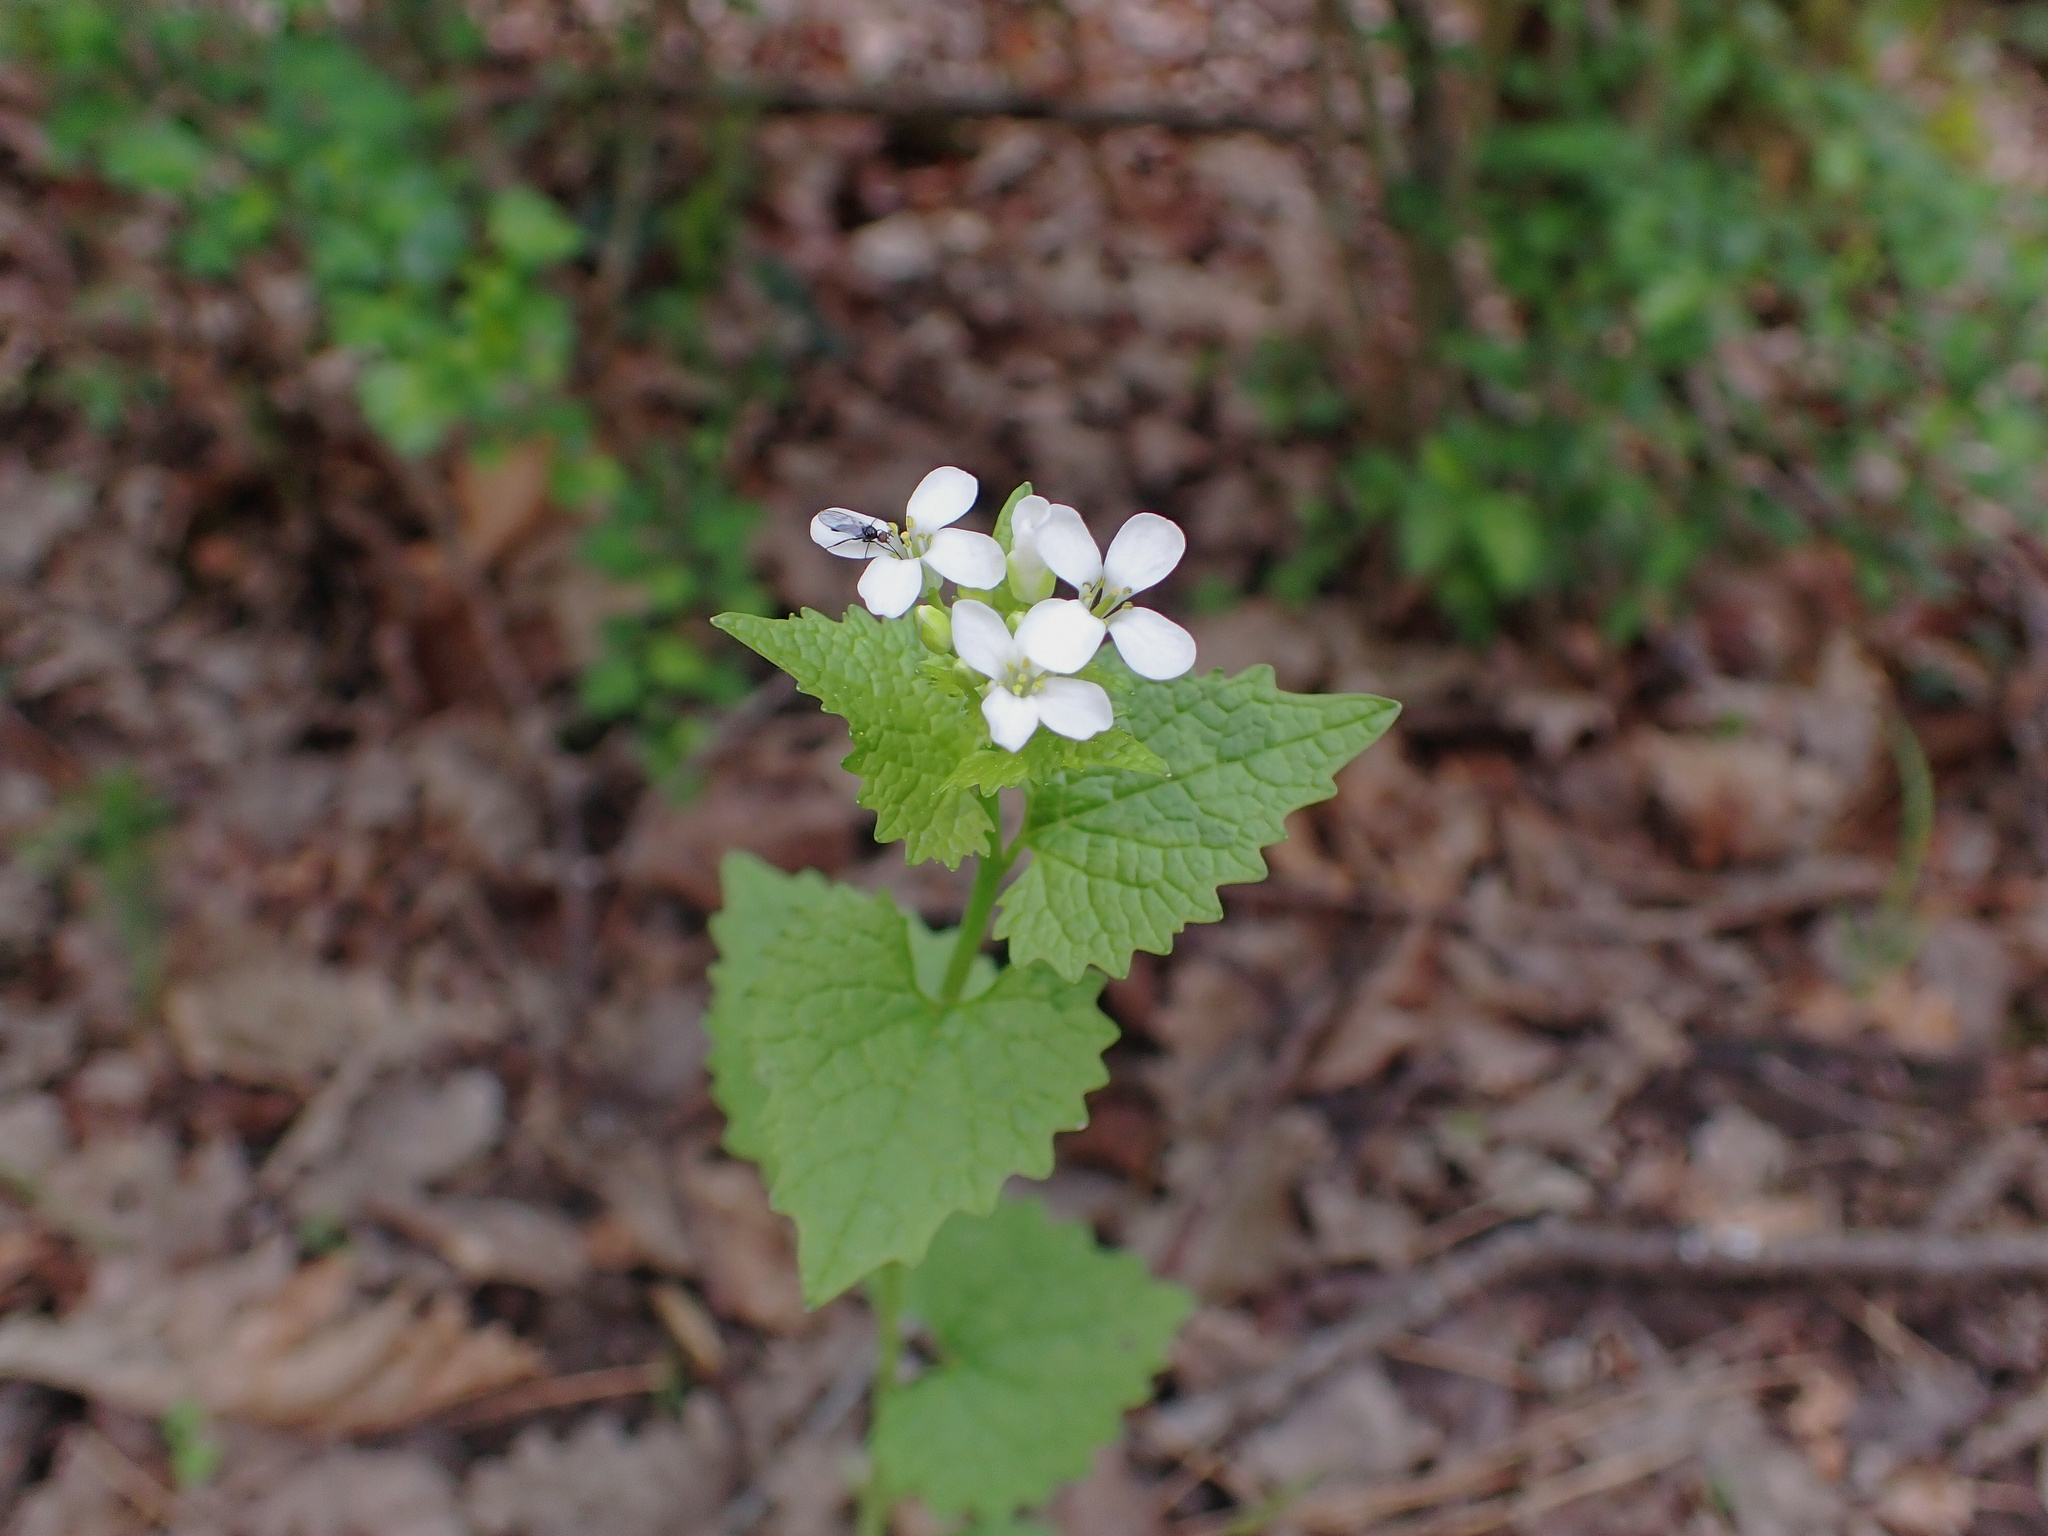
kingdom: Plantae
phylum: Tracheophyta
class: Magnoliopsida
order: Brassicales
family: Brassicaceae
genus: Alliaria
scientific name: Alliaria petiolata
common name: Garlic mustard
